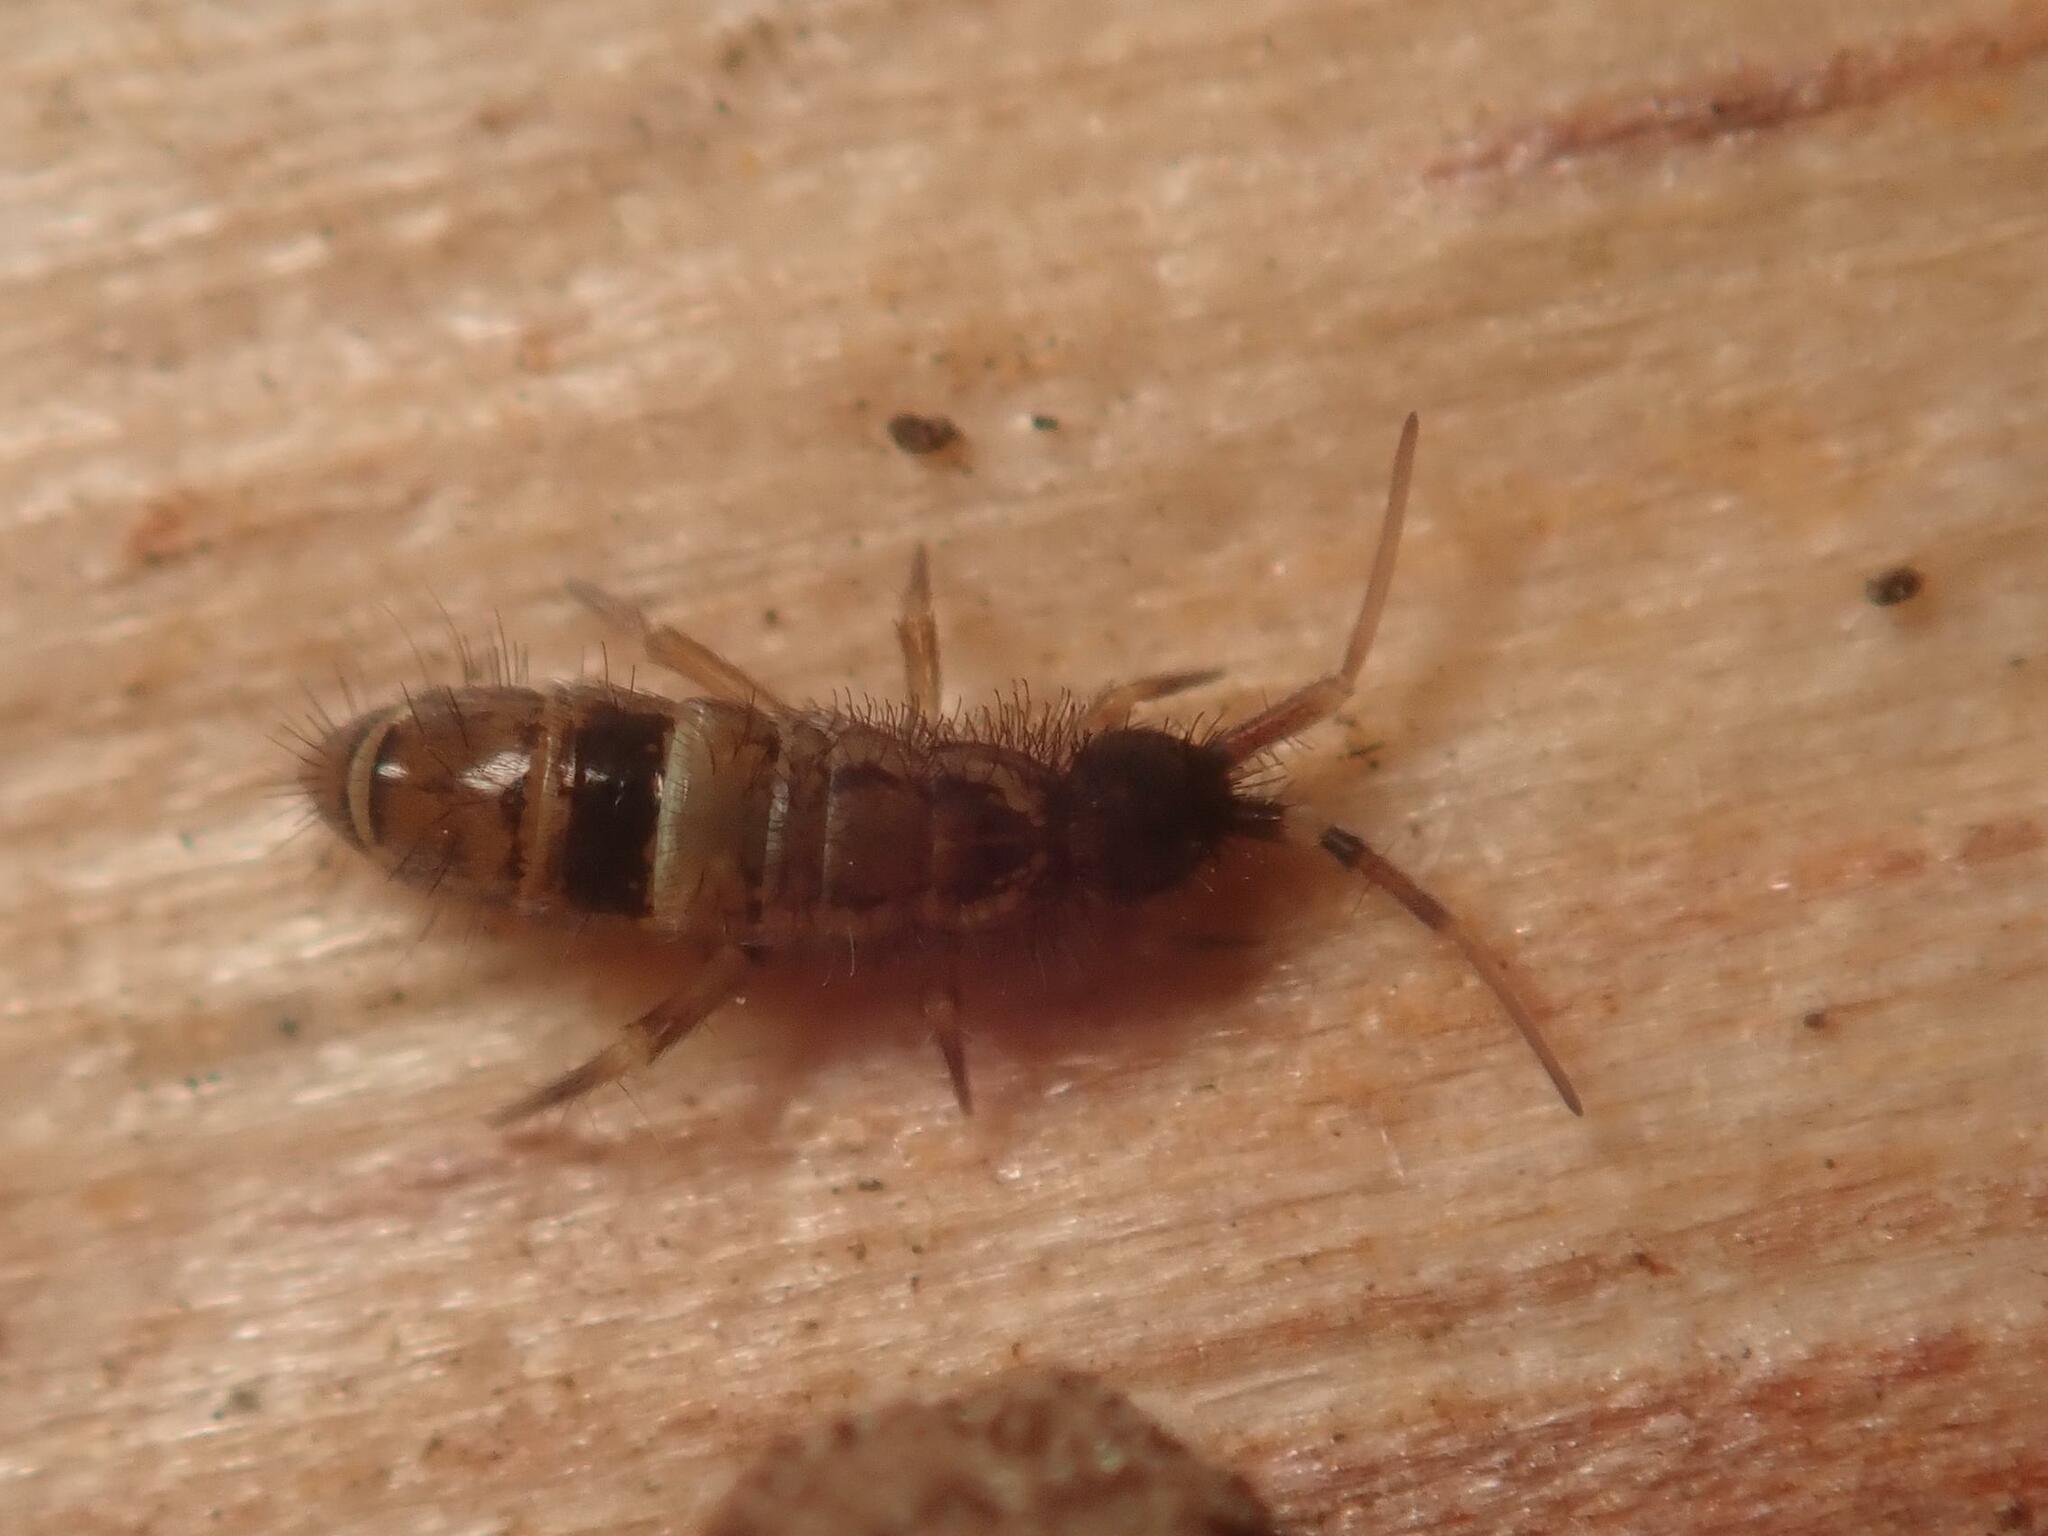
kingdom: Animalia
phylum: Arthropoda
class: Collembola
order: Entomobryomorpha
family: Orchesellidae
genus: Orchesella
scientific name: Orchesella cincta
